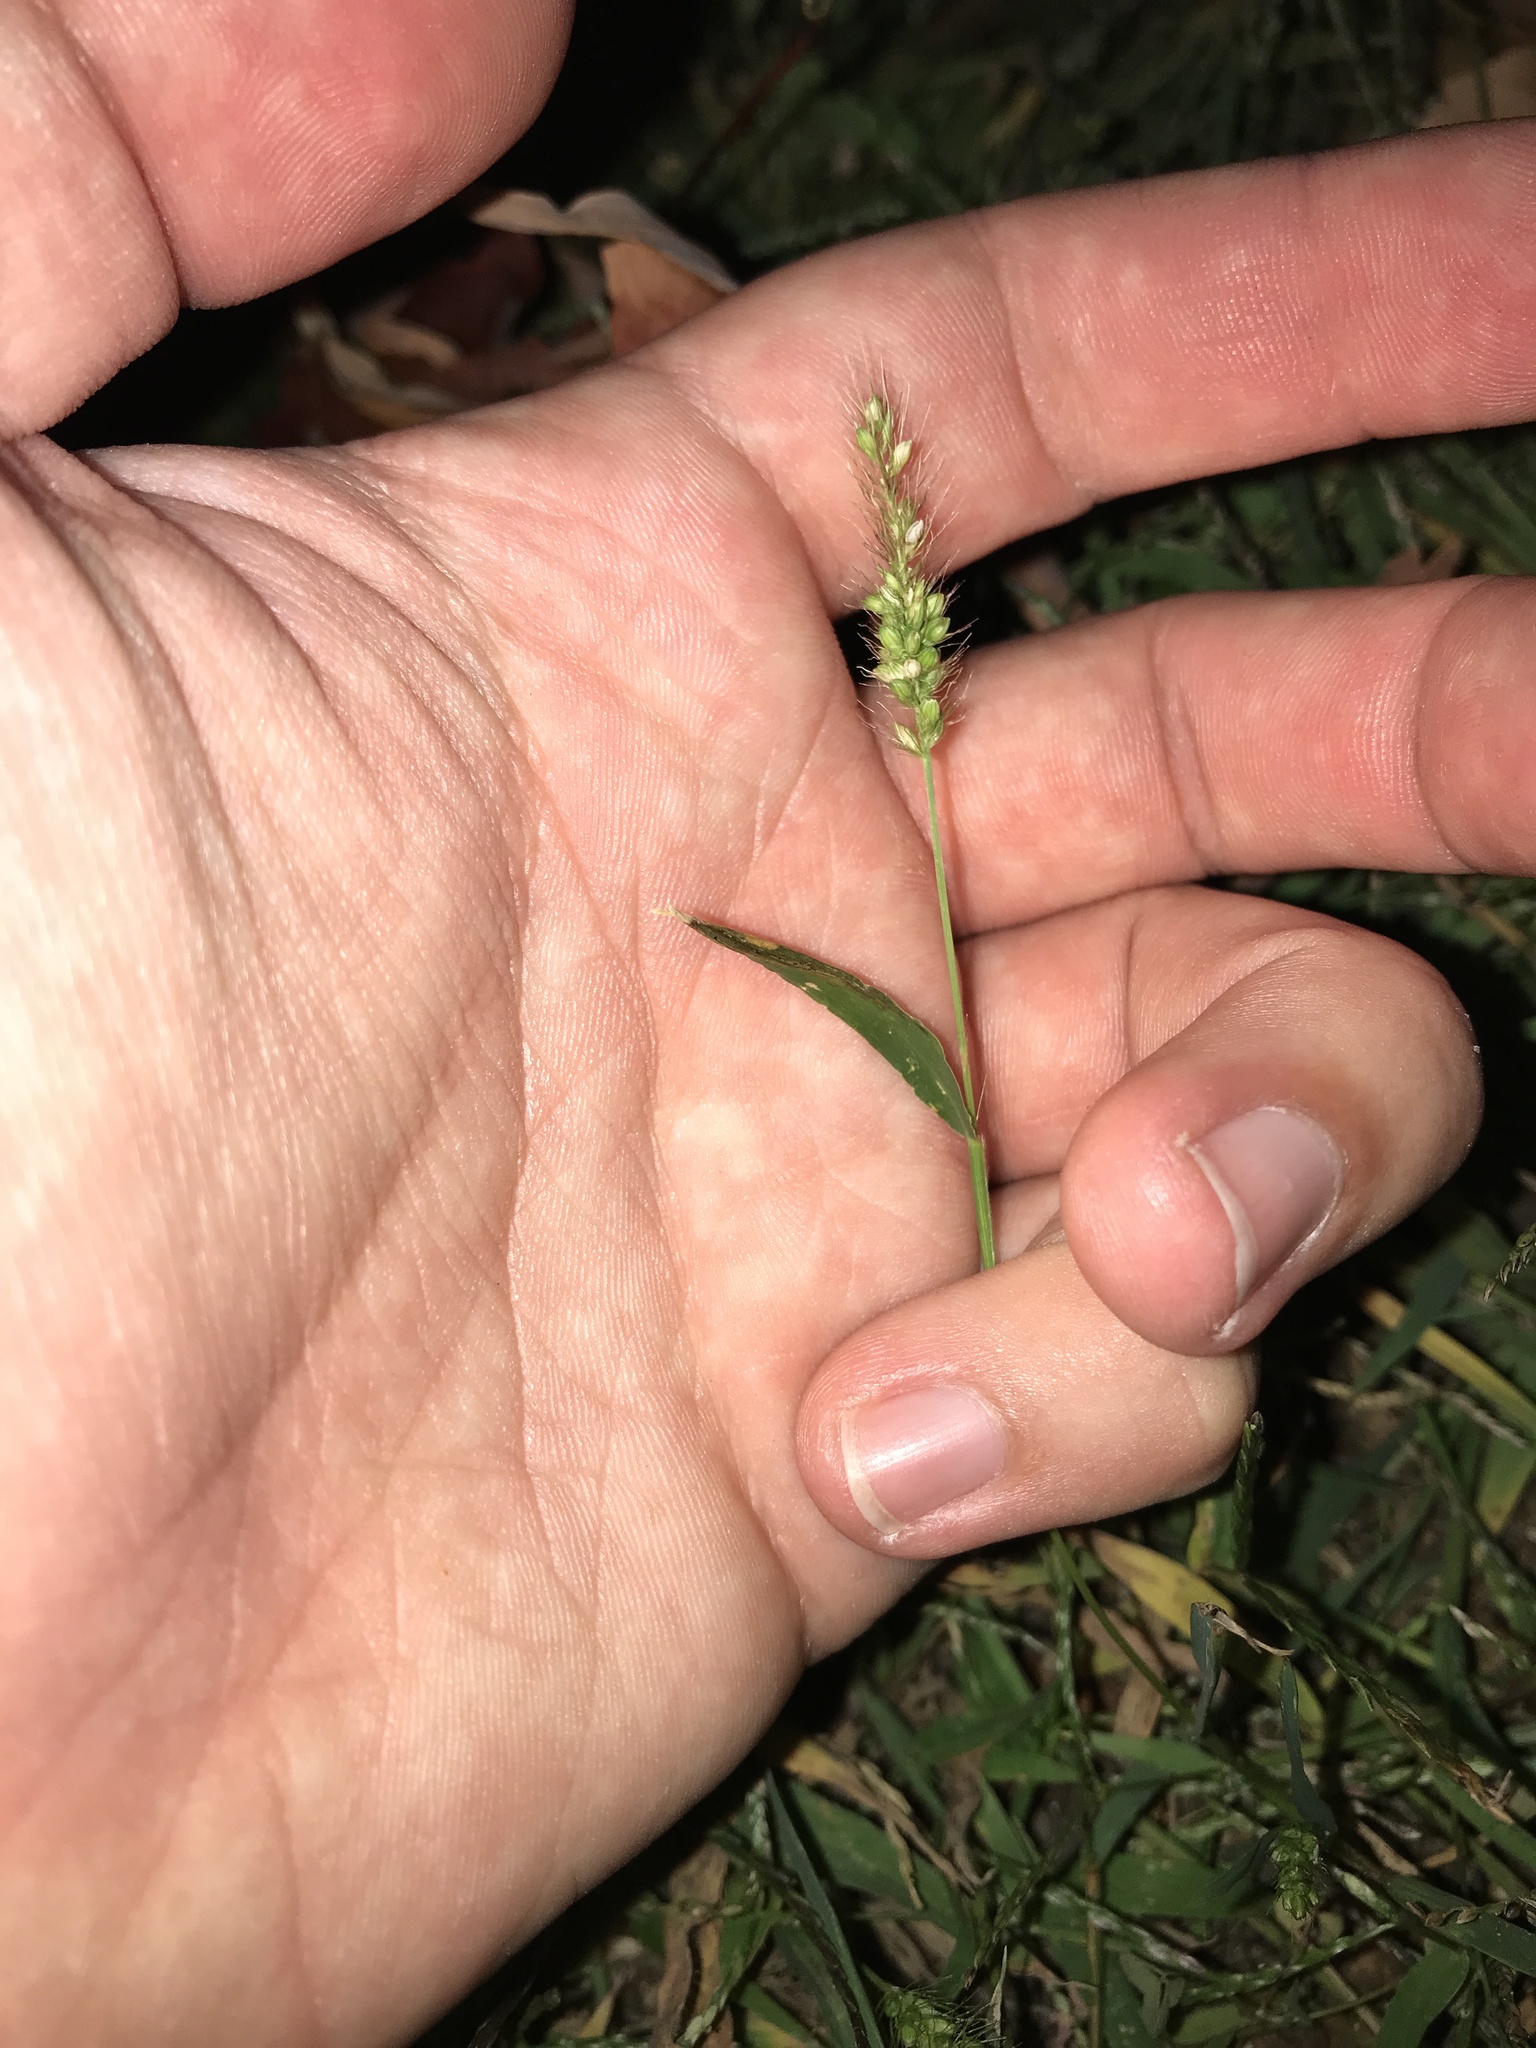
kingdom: Plantae
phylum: Tracheophyta
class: Liliopsida
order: Poales
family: Poaceae
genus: Setaria
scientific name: Setaria viridis
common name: Green bristlegrass
